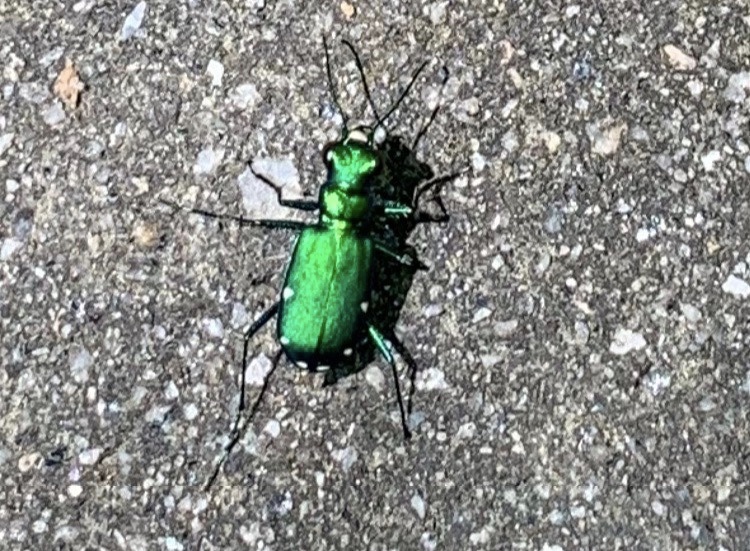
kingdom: Animalia
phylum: Arthropoda
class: Insecta
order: Coleoptera
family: Carabidae
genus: Cicindela
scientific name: Cicindela sexguttata
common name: Six-spotted tiger beetle
